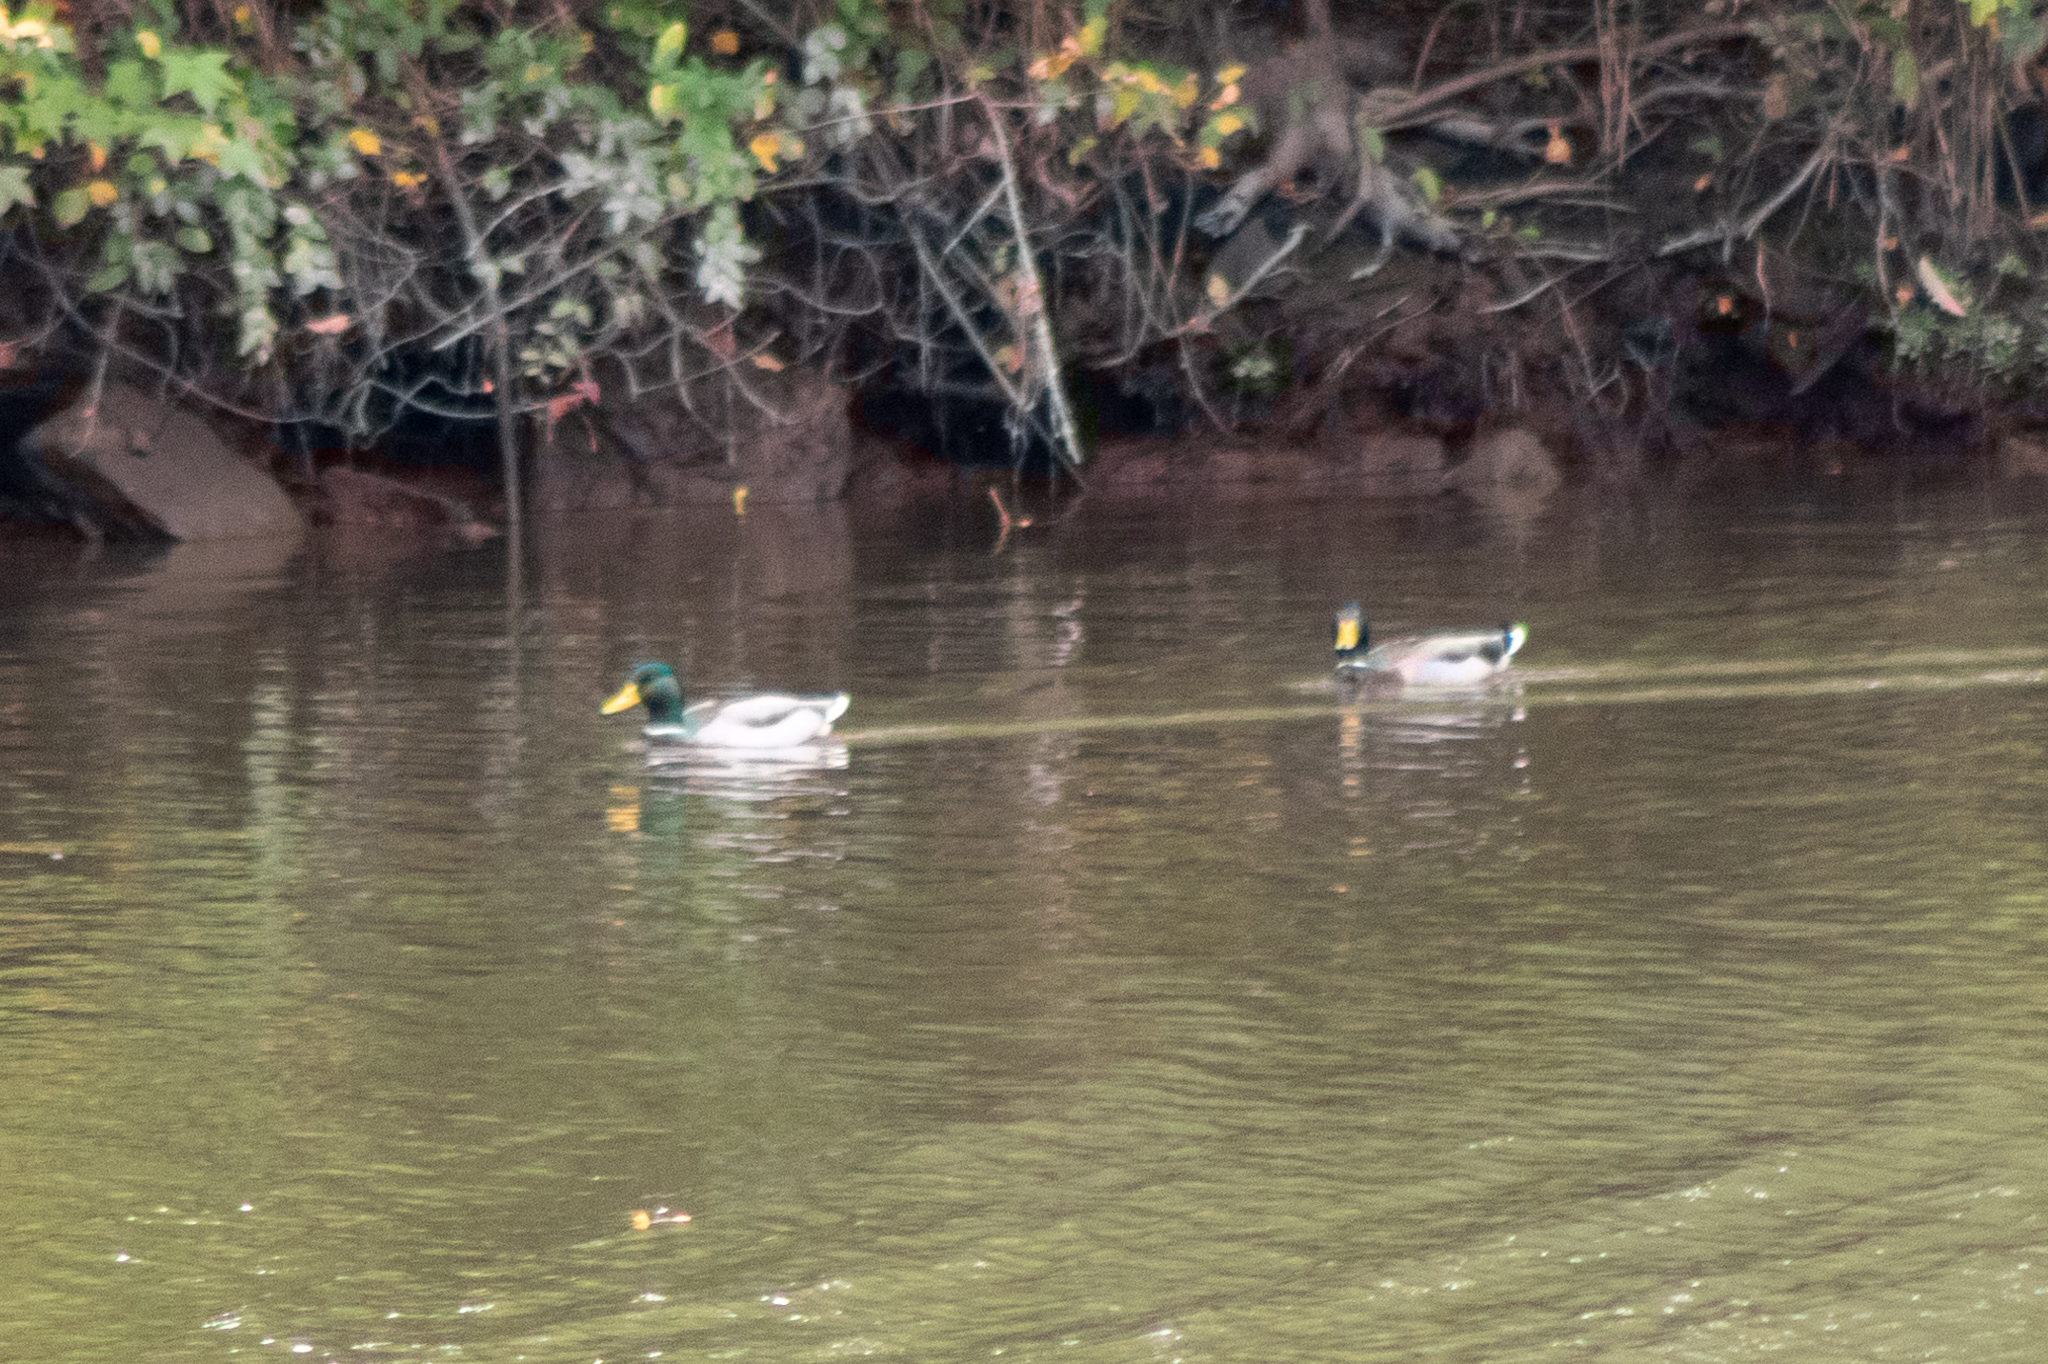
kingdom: Animalia
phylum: Chordata
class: Aves
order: Anseriformes
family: Anatidae
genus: Anas
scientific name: Anas platyrhynchos
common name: Mallard
